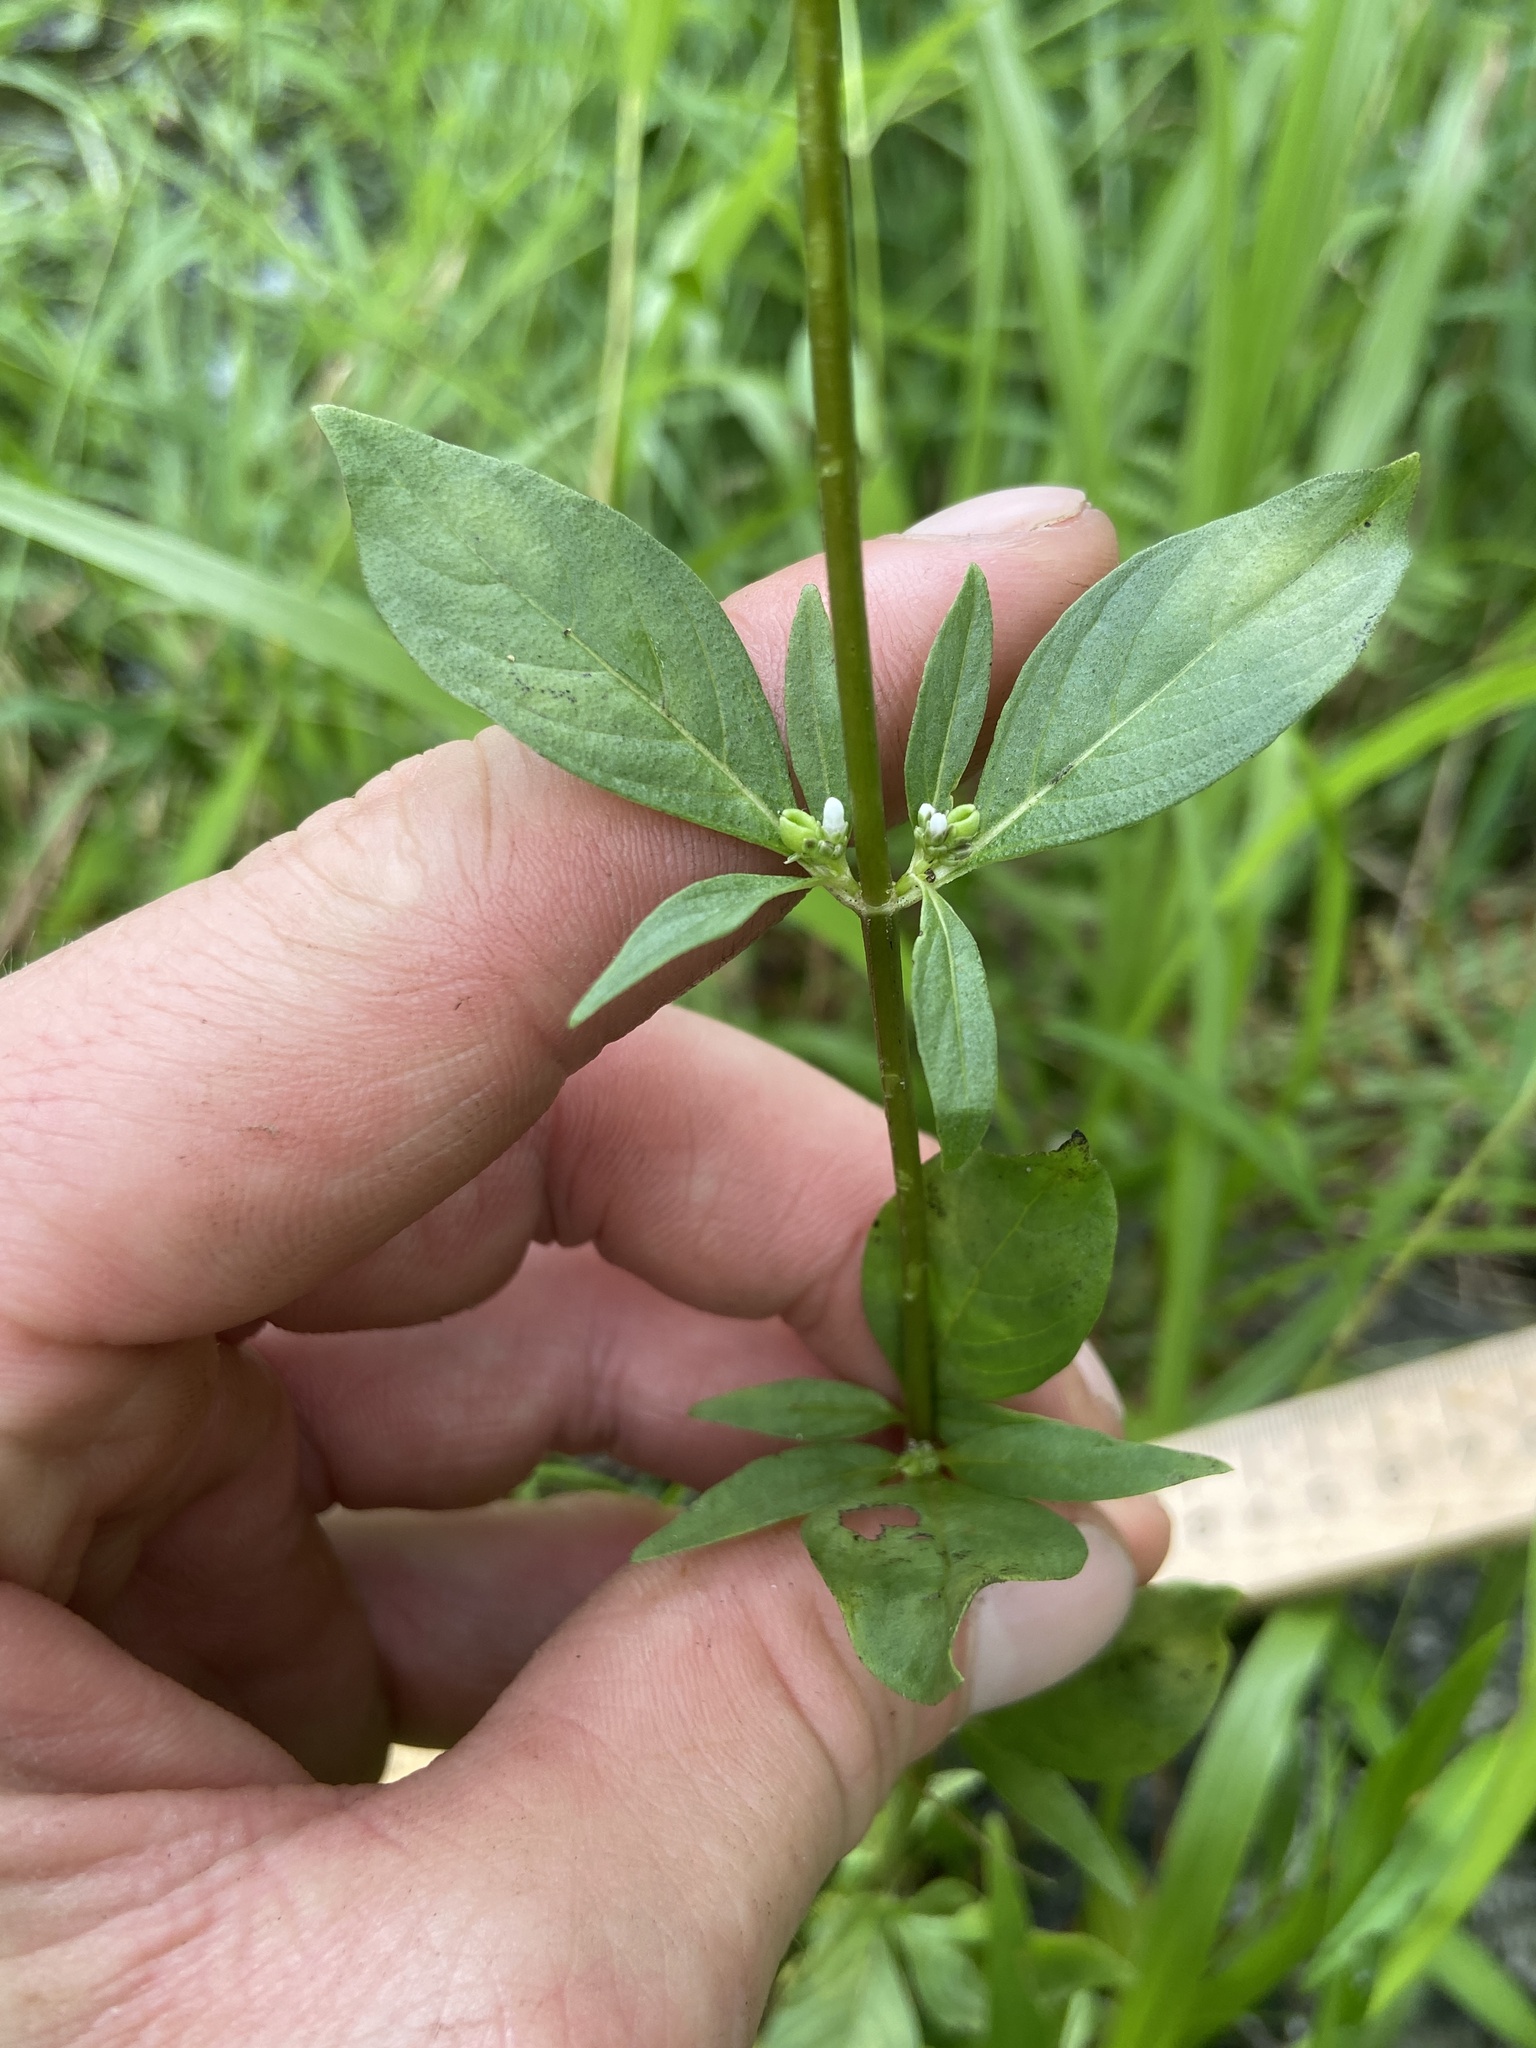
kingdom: Plantae
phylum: Tracheophyta
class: Magnoliopsida
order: Gentianales
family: Loganiaceae
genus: Mitreola
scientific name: Mitreola petiolata
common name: Lax hornpod
